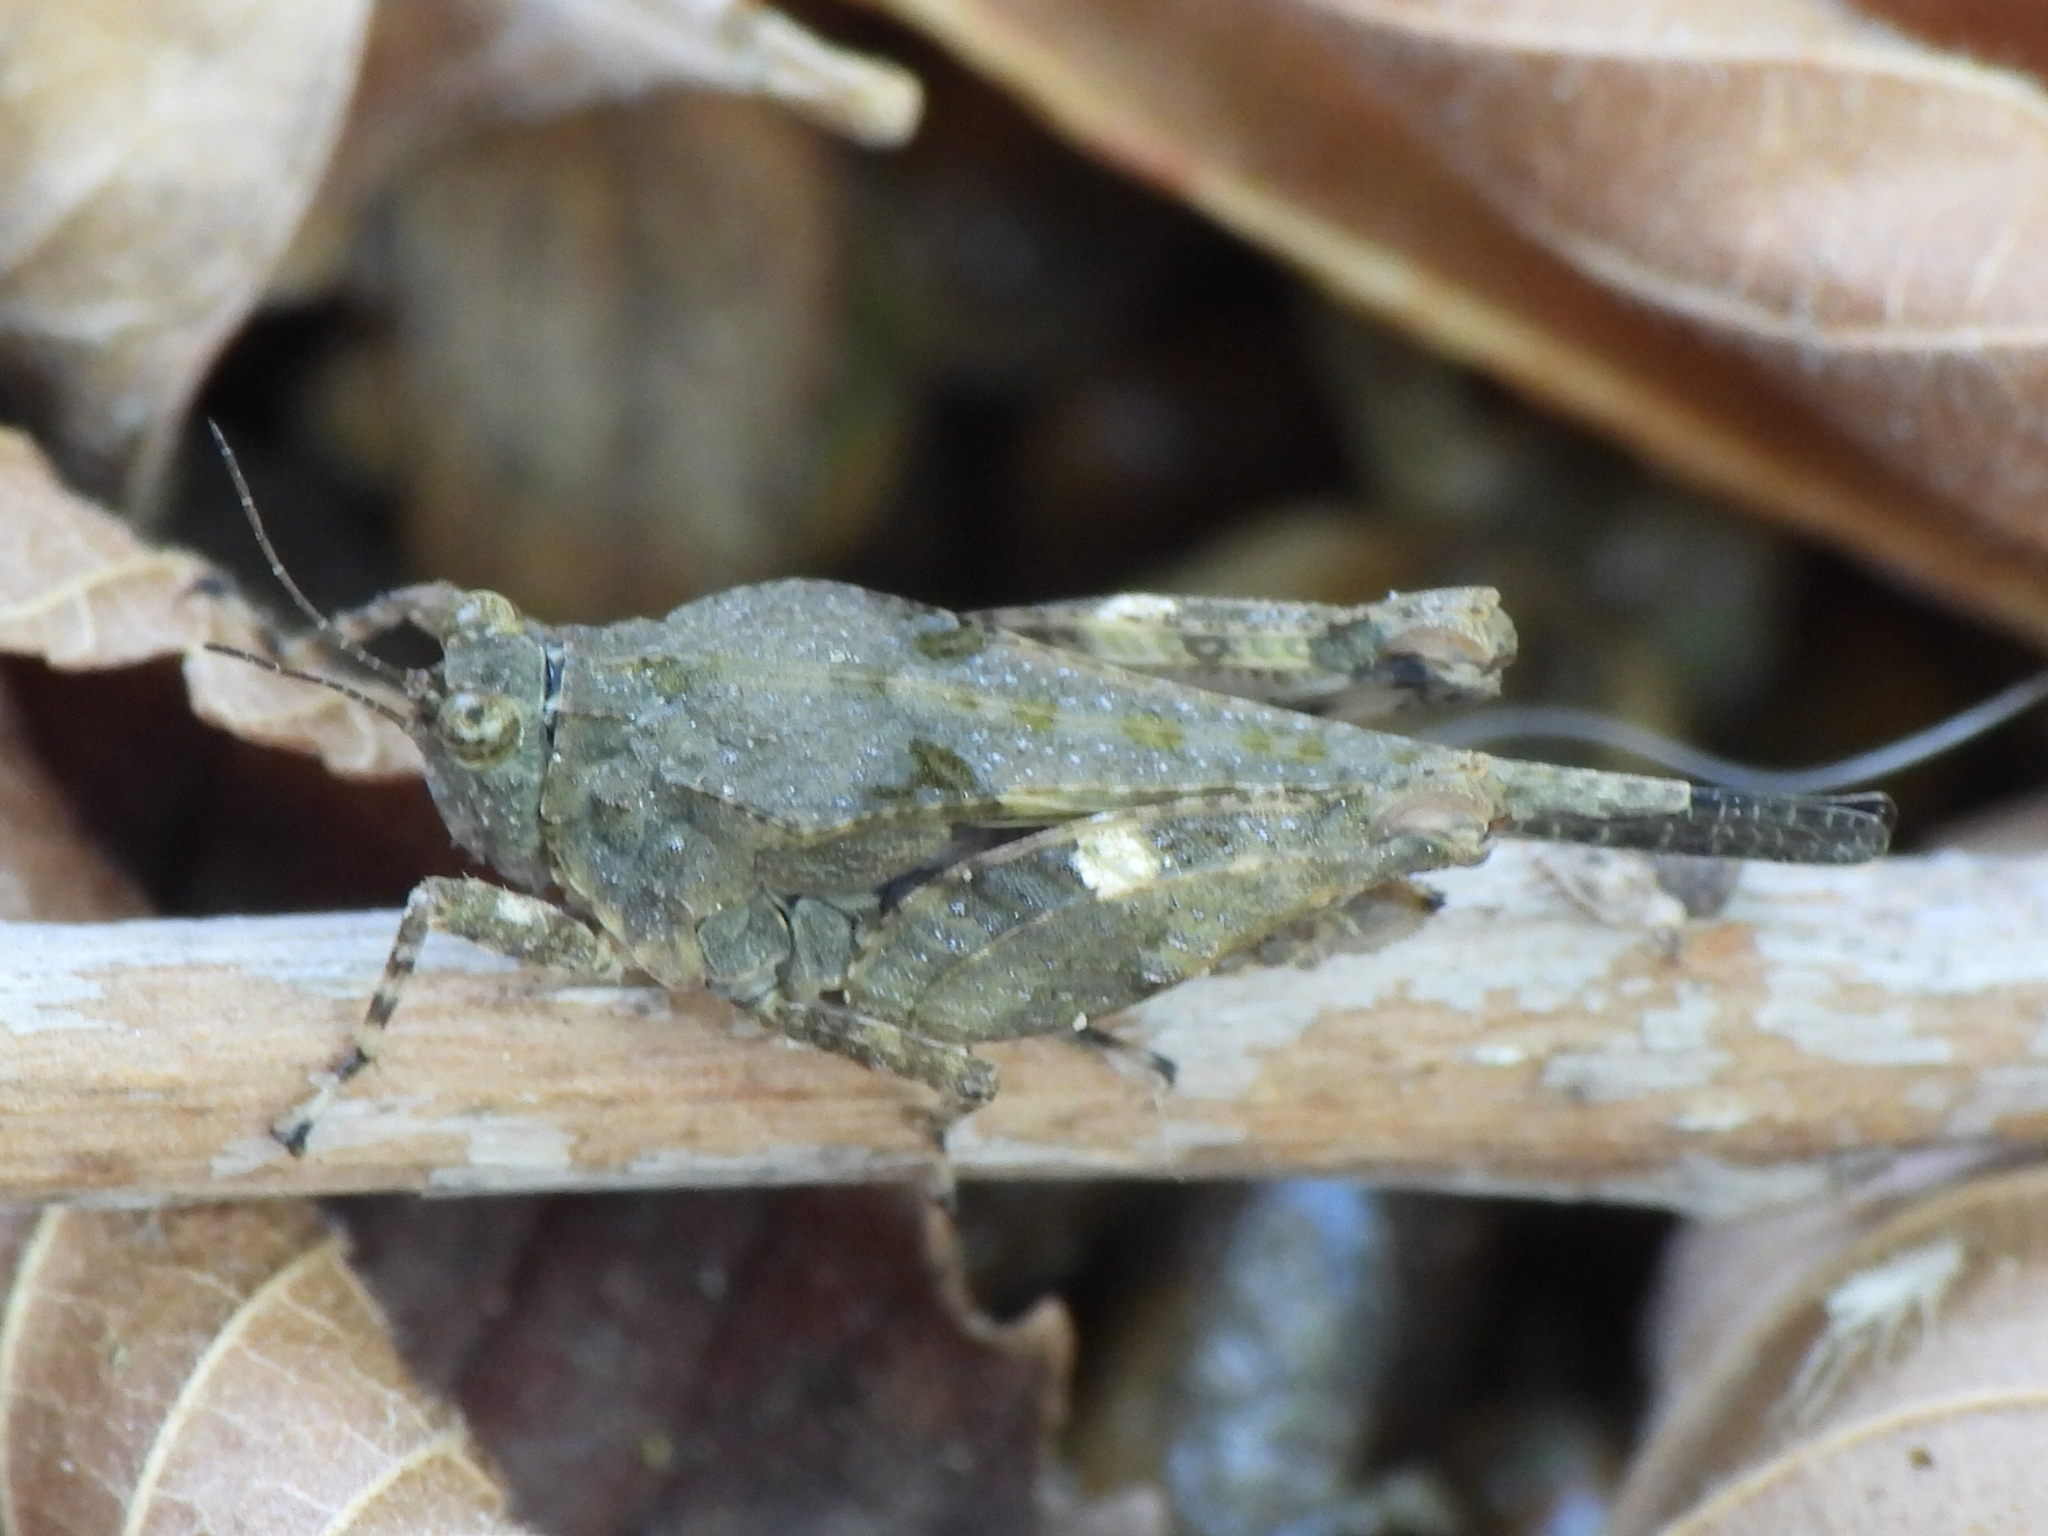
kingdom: Animalia
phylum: Arthropoda
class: Insecta
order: Orthoptera
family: Tetrigidae
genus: Paratettix
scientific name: Paratettix mexicanus
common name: Mexican pygmy grasshopper
